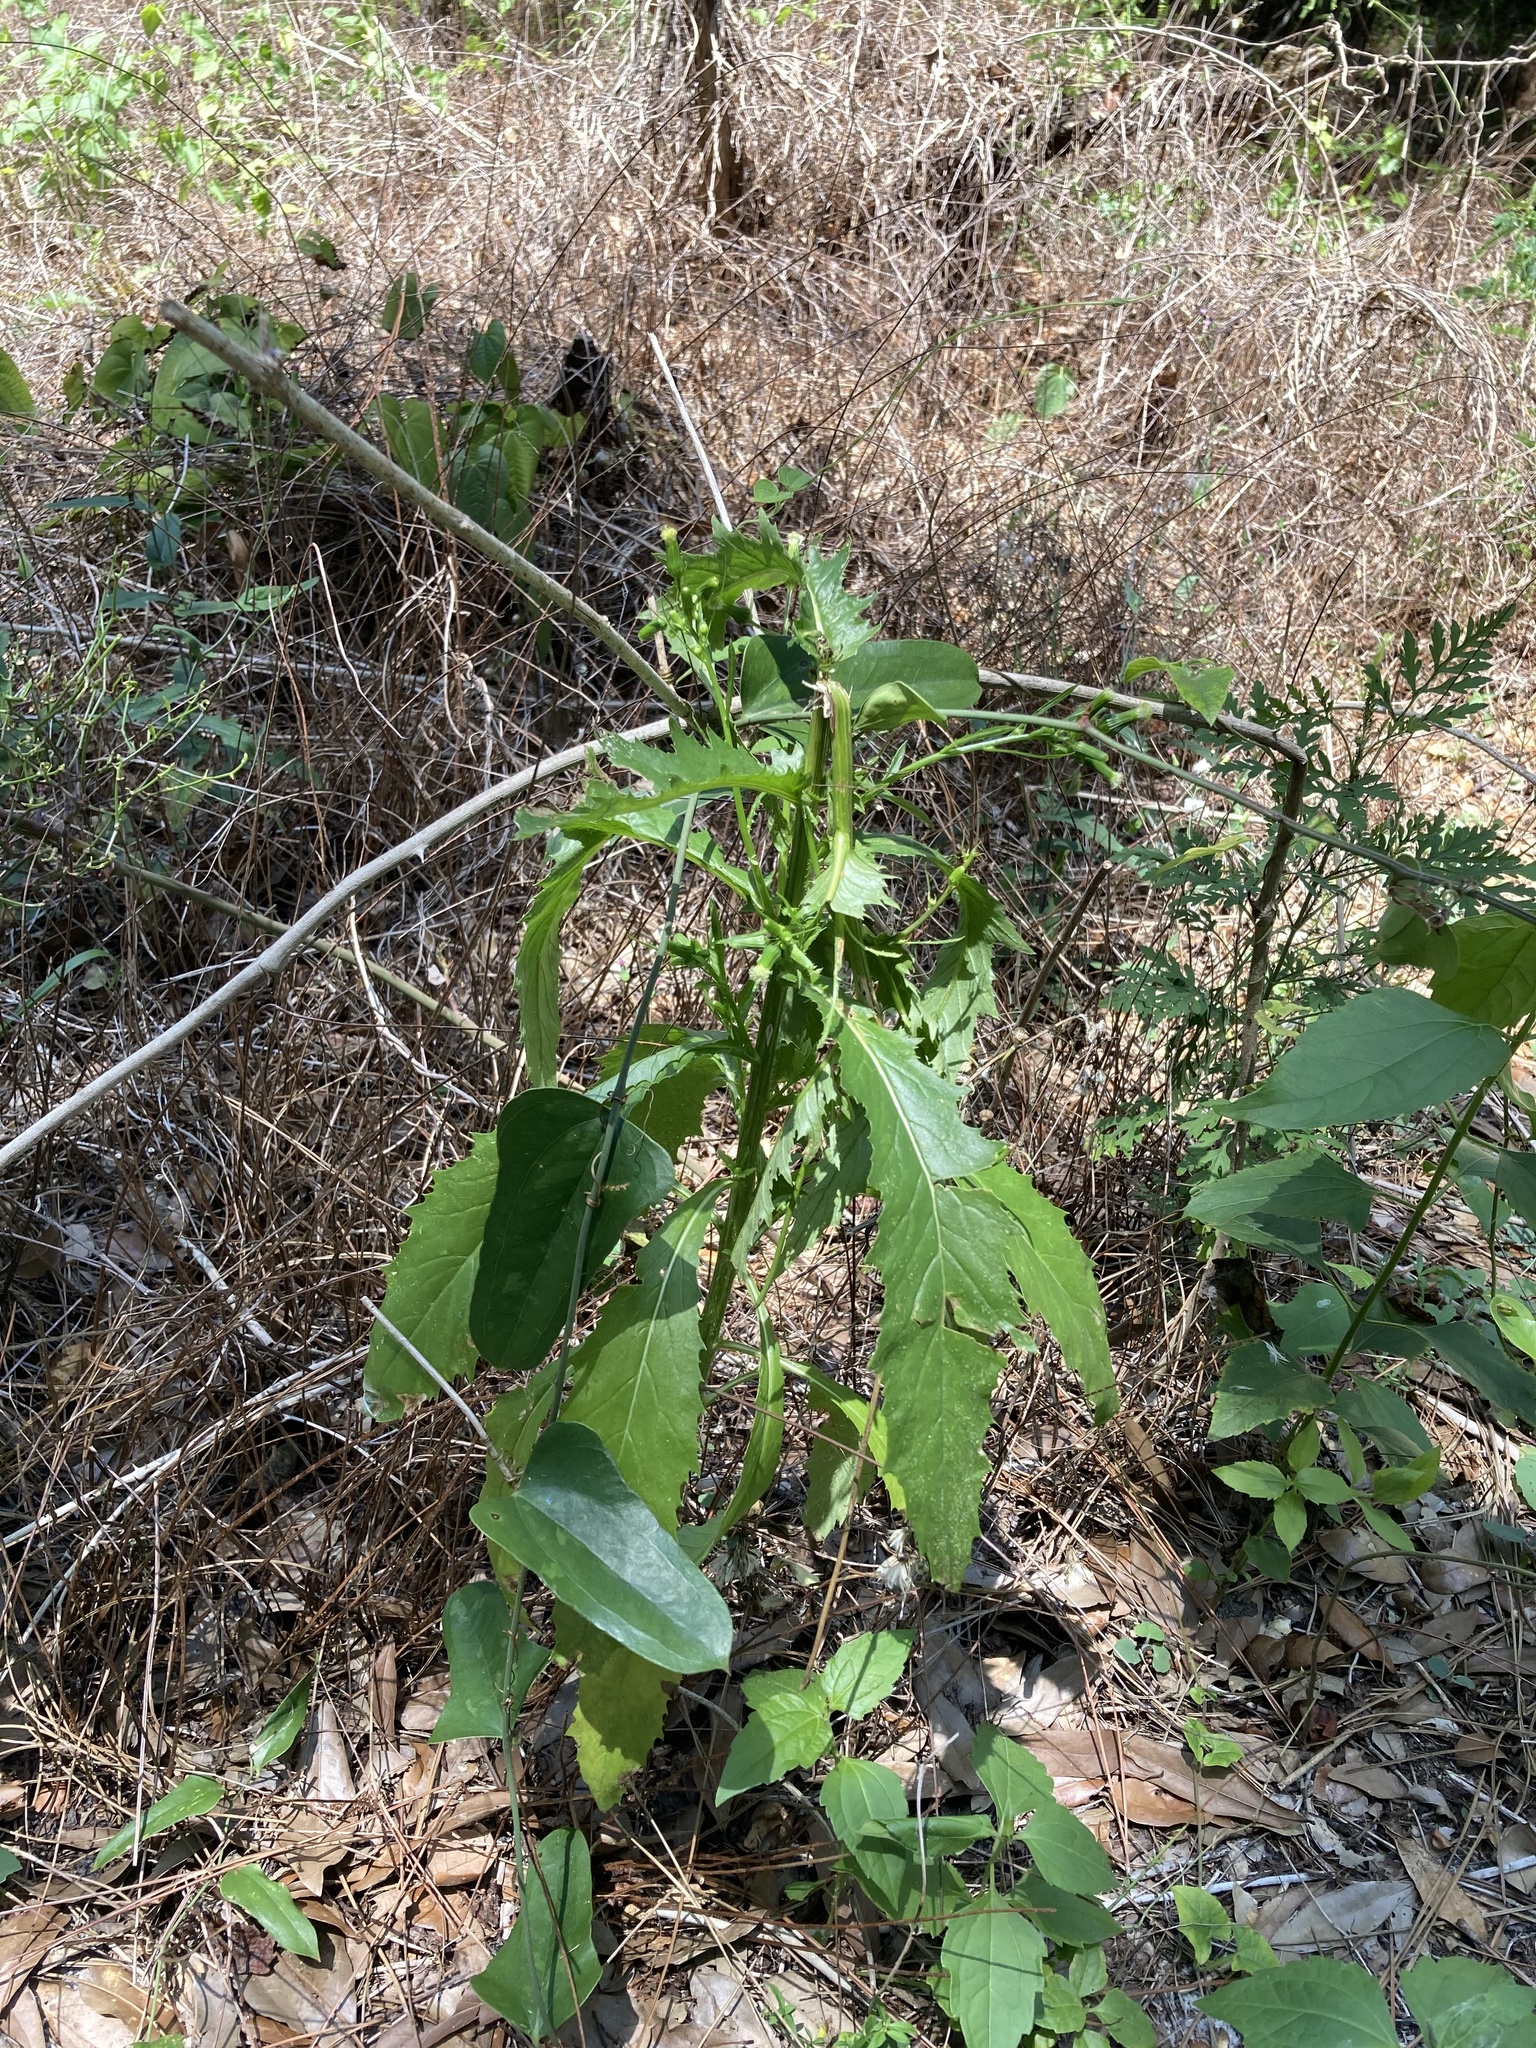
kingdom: Plantae
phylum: Tracheophyta
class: Magnoliopsida
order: Asterales
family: Asteraceae
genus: Erechtites
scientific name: Erechtites hieraciifolius
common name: American burnweed
